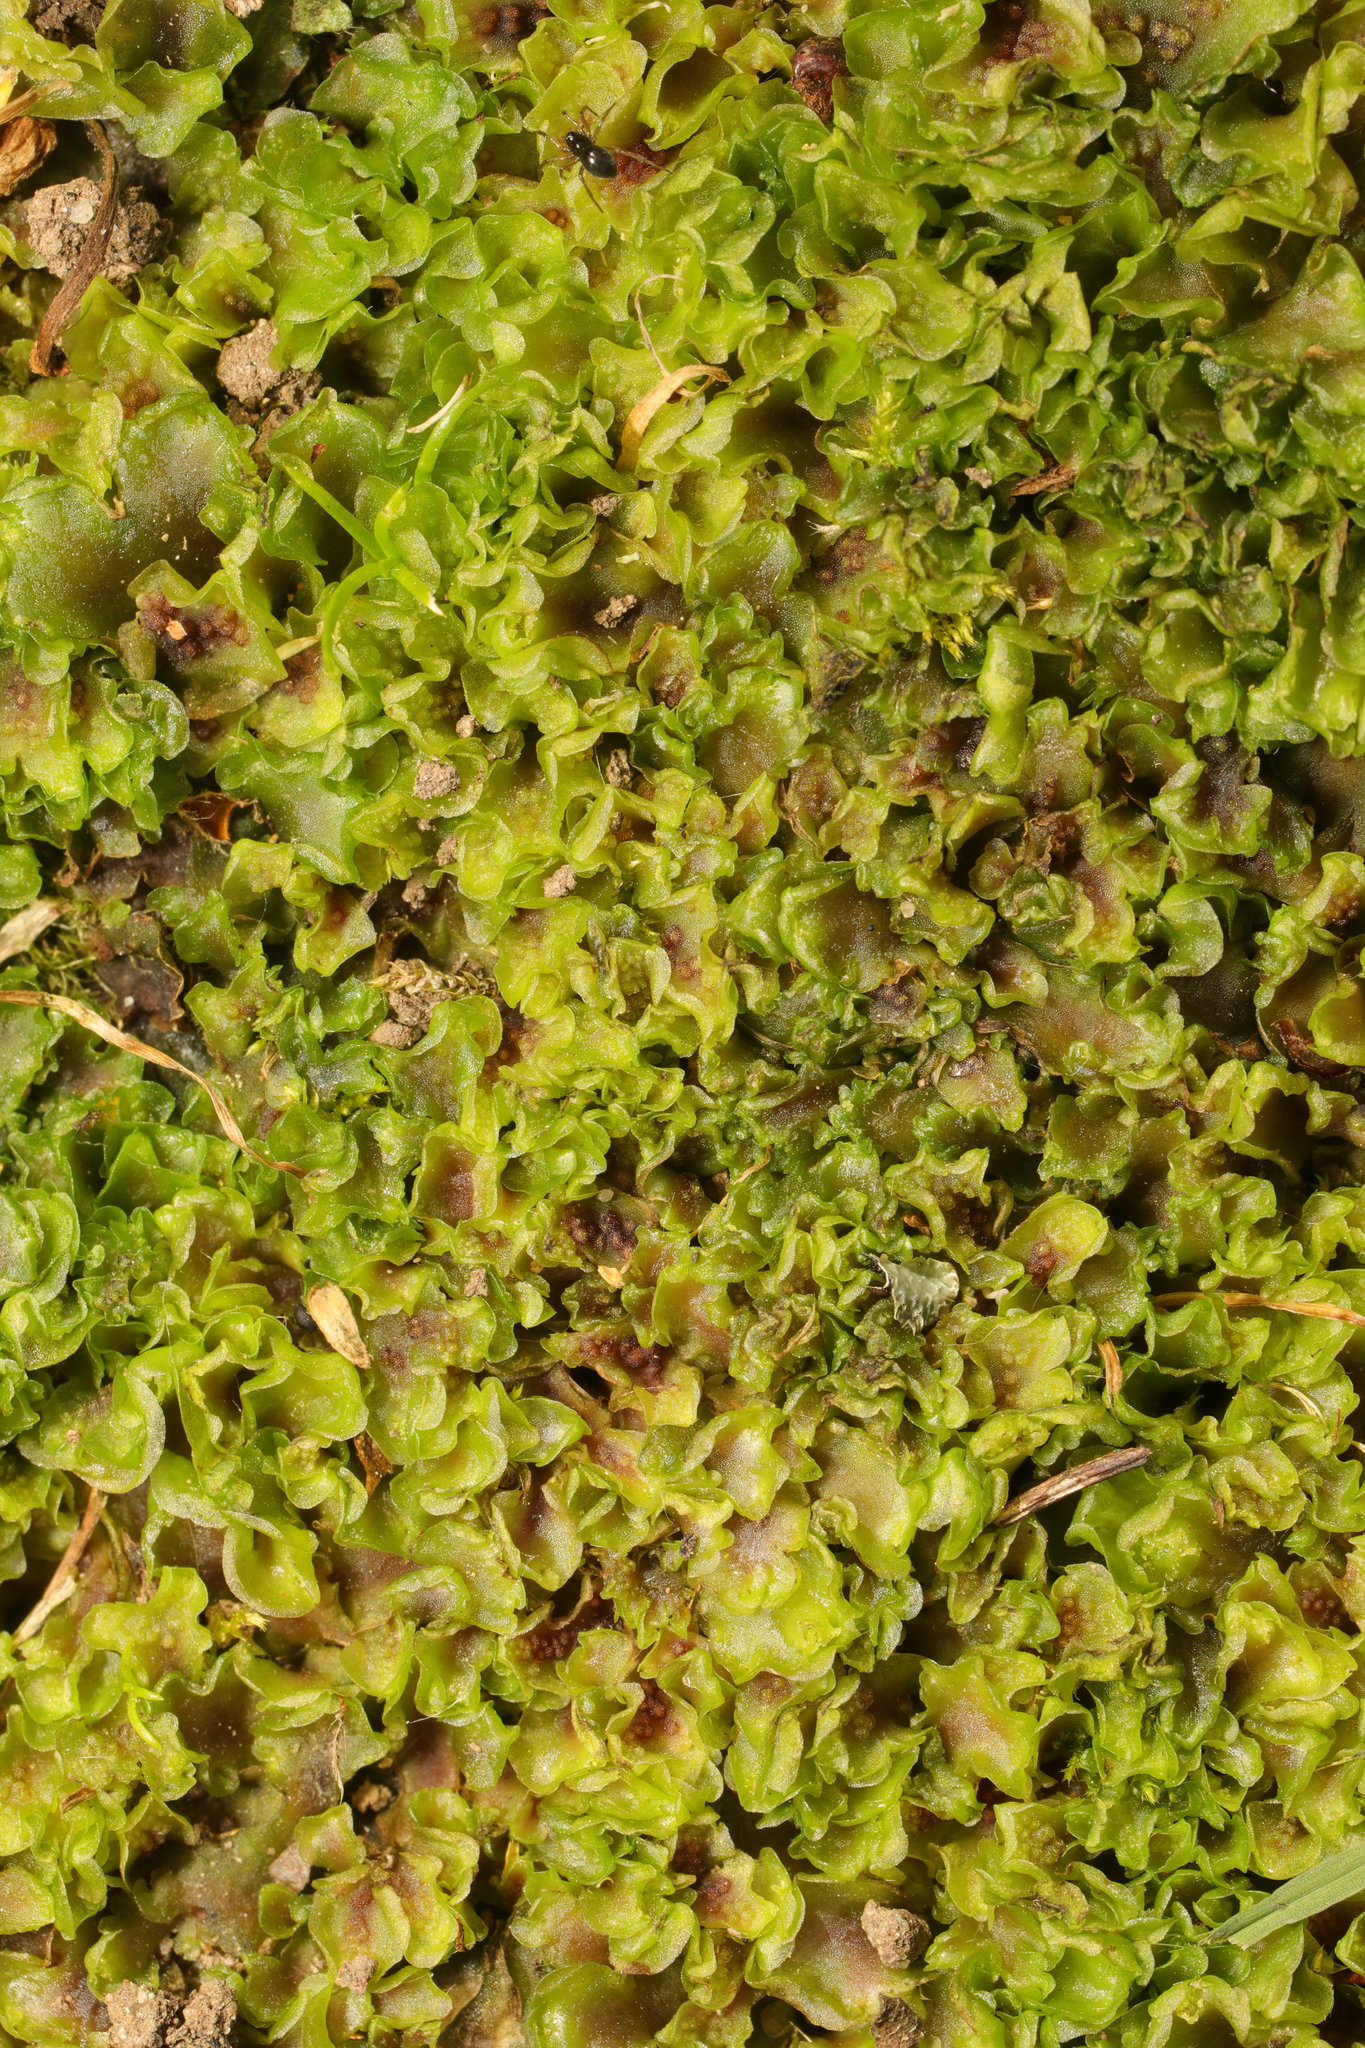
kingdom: Plantae
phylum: Marchantiophyta
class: Jungermanniopsida
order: Pelliales
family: Pelliaceae
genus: Pellia
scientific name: Pellia neesiana
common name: Nees  pellia
